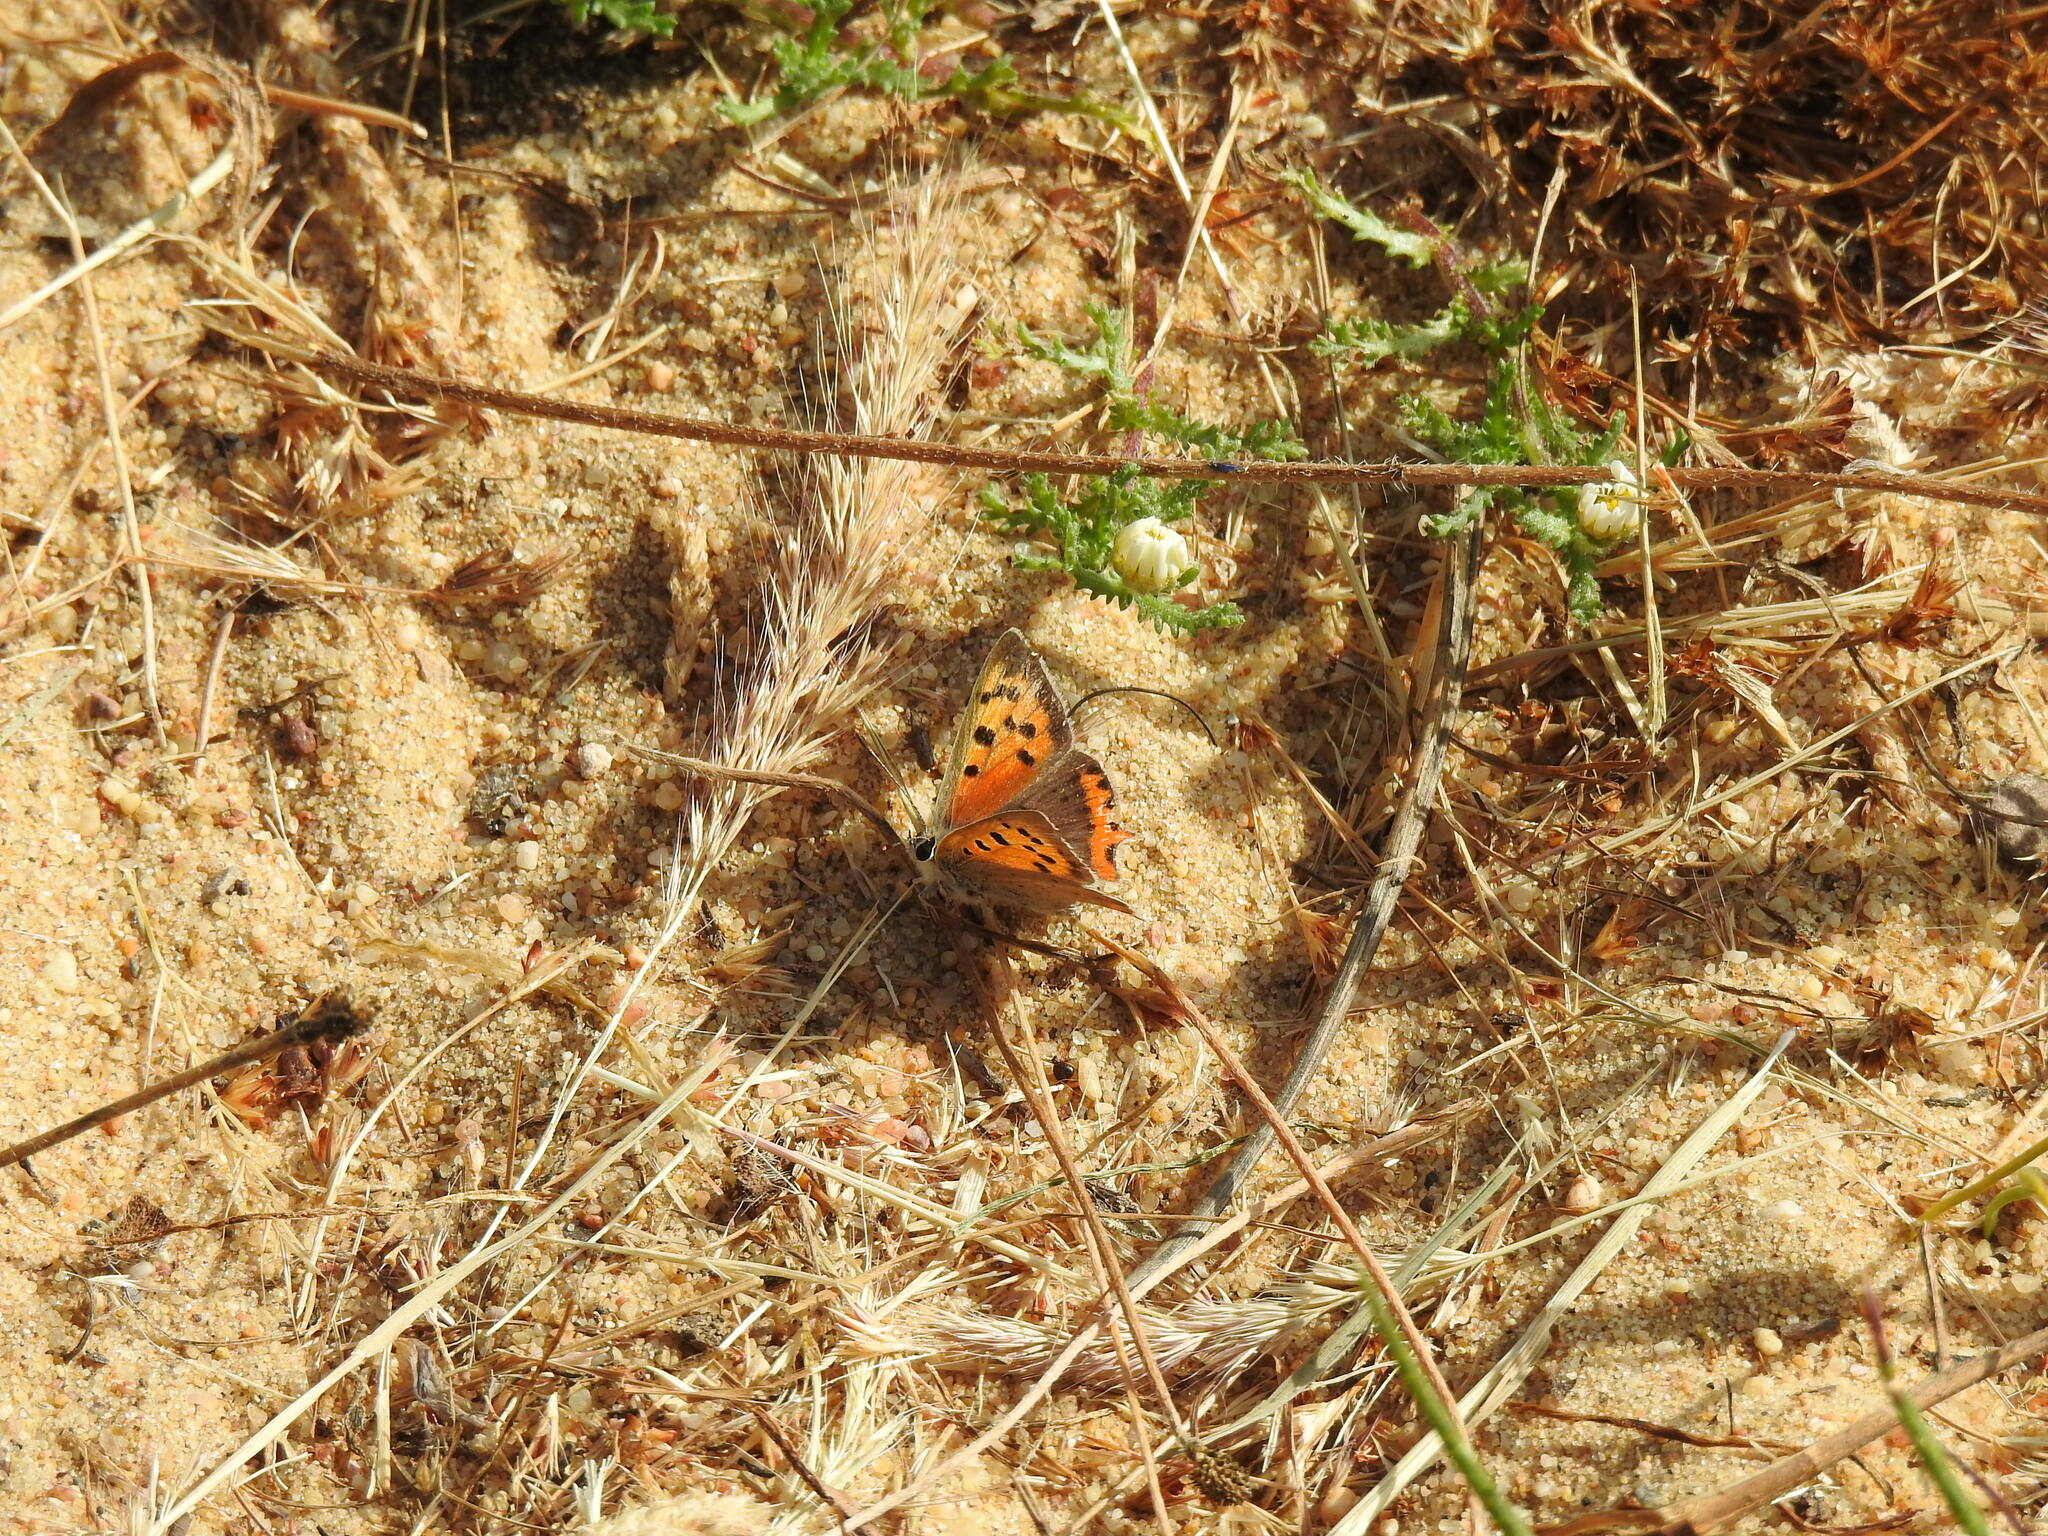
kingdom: Animalia
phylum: Arthropoda
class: Insecta
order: Lepidoptera
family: Lycaenidae
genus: Lycaena
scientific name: Lycaena phlaeas
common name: Small copper
